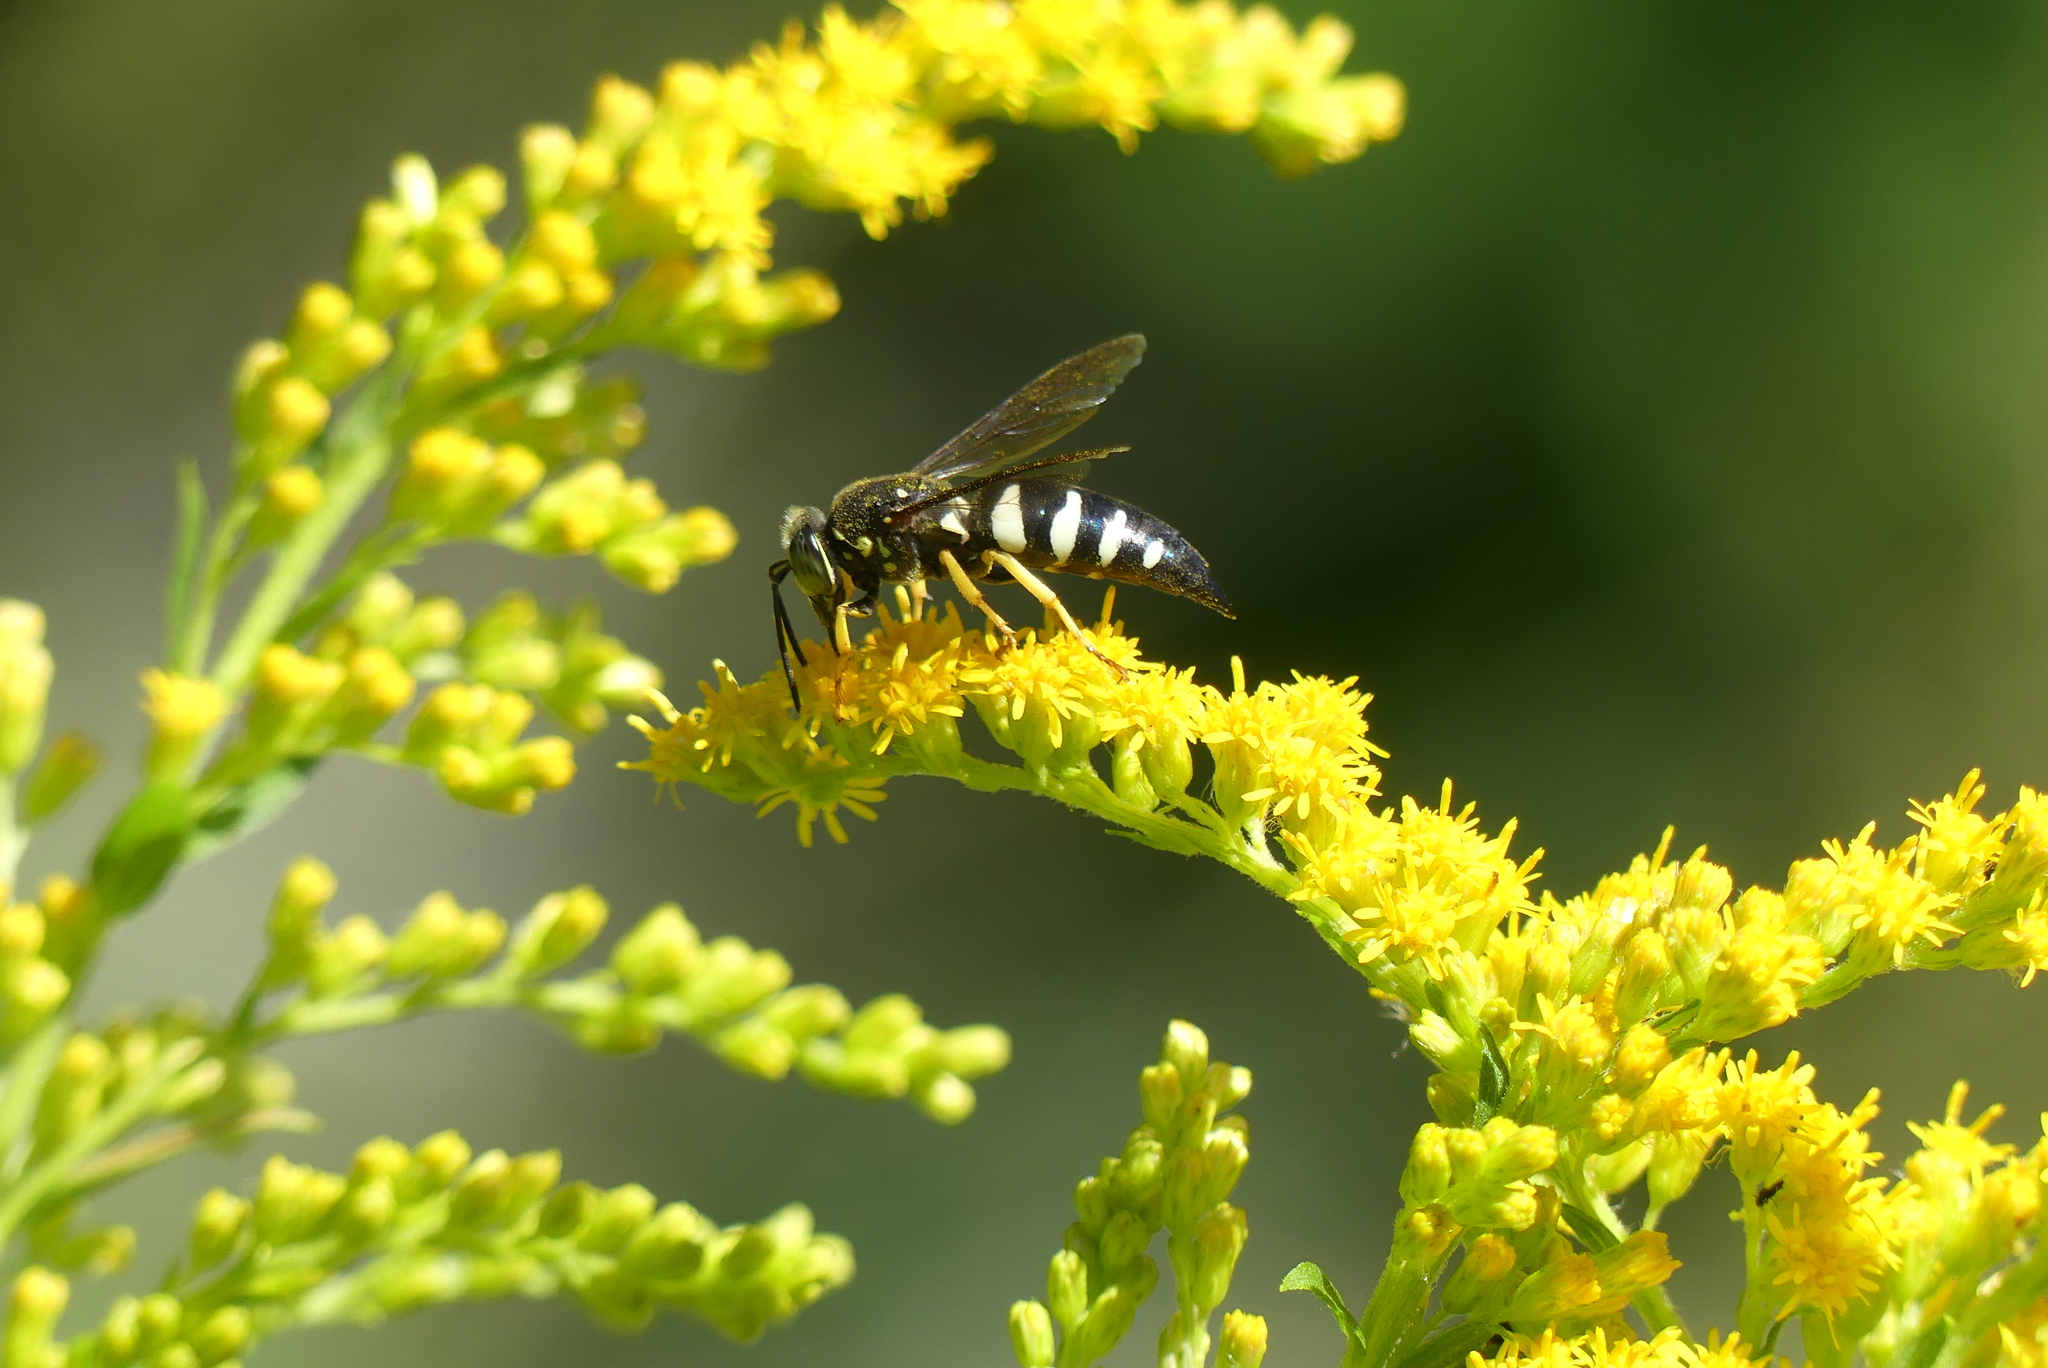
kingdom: Animalia
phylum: Arthropoda
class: Insecta
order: Hymenoptera
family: Crabronidae
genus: Bicyrtes
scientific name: Bicyrtes quadrifasciatus
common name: Four-banded stink bug hunter wasp
